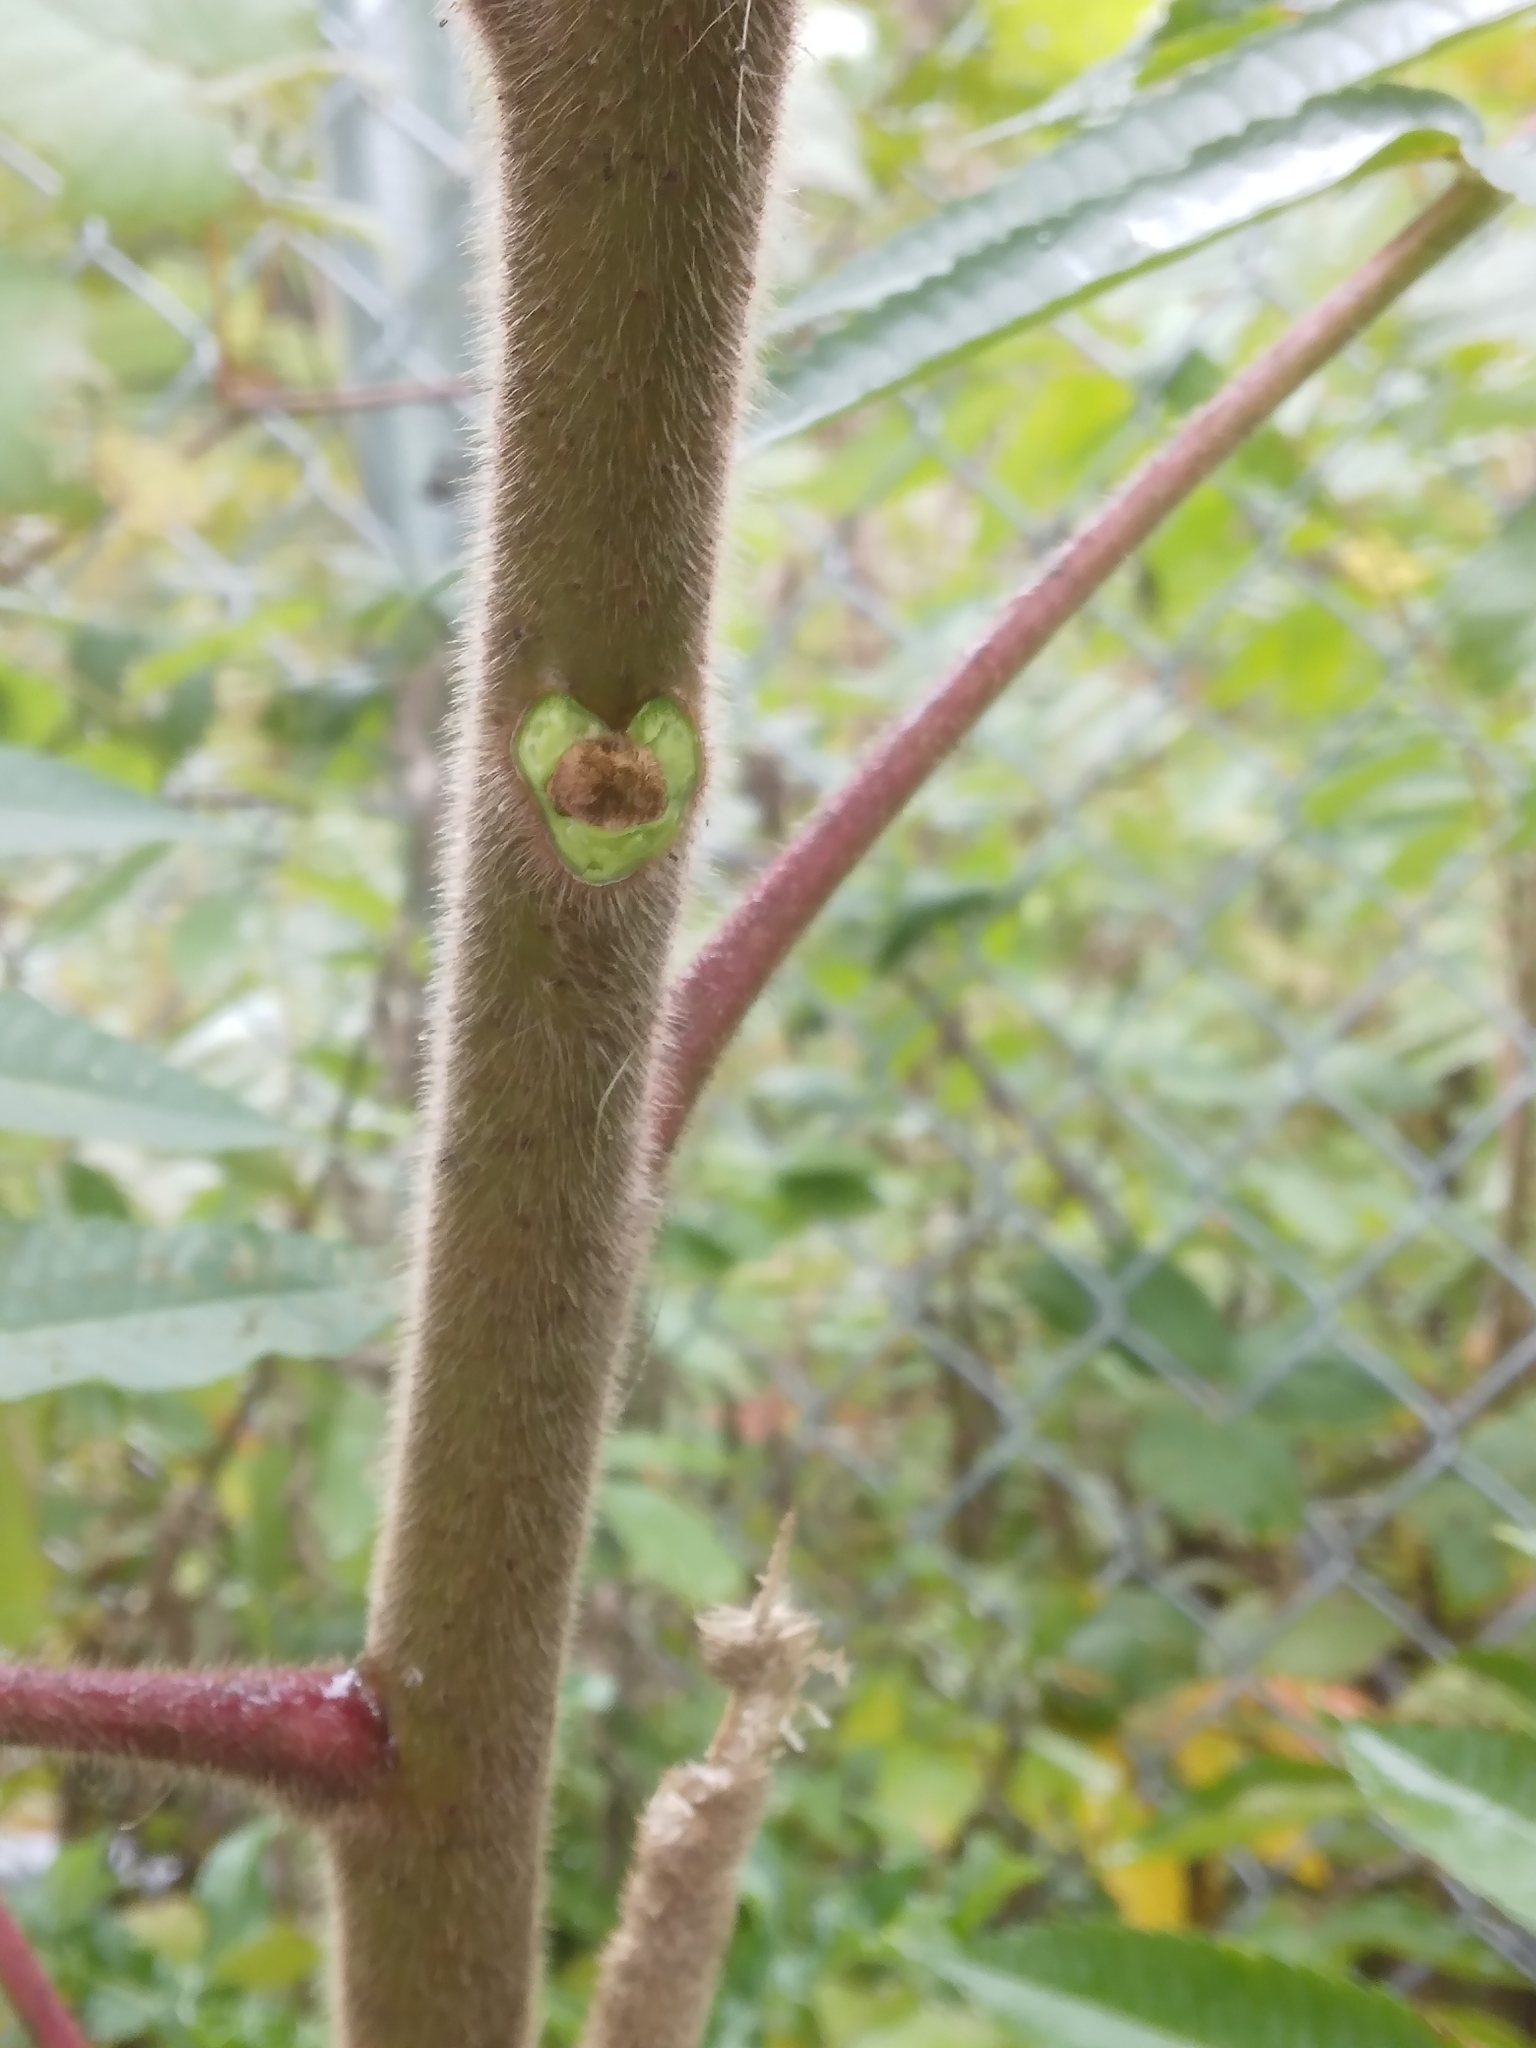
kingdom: Plantae
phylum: Tracheophyta
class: Magnoliopsida
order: Sapindales
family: Anacardiaceae
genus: Rhus
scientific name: Rhus typhina
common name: Staghorn sumac
